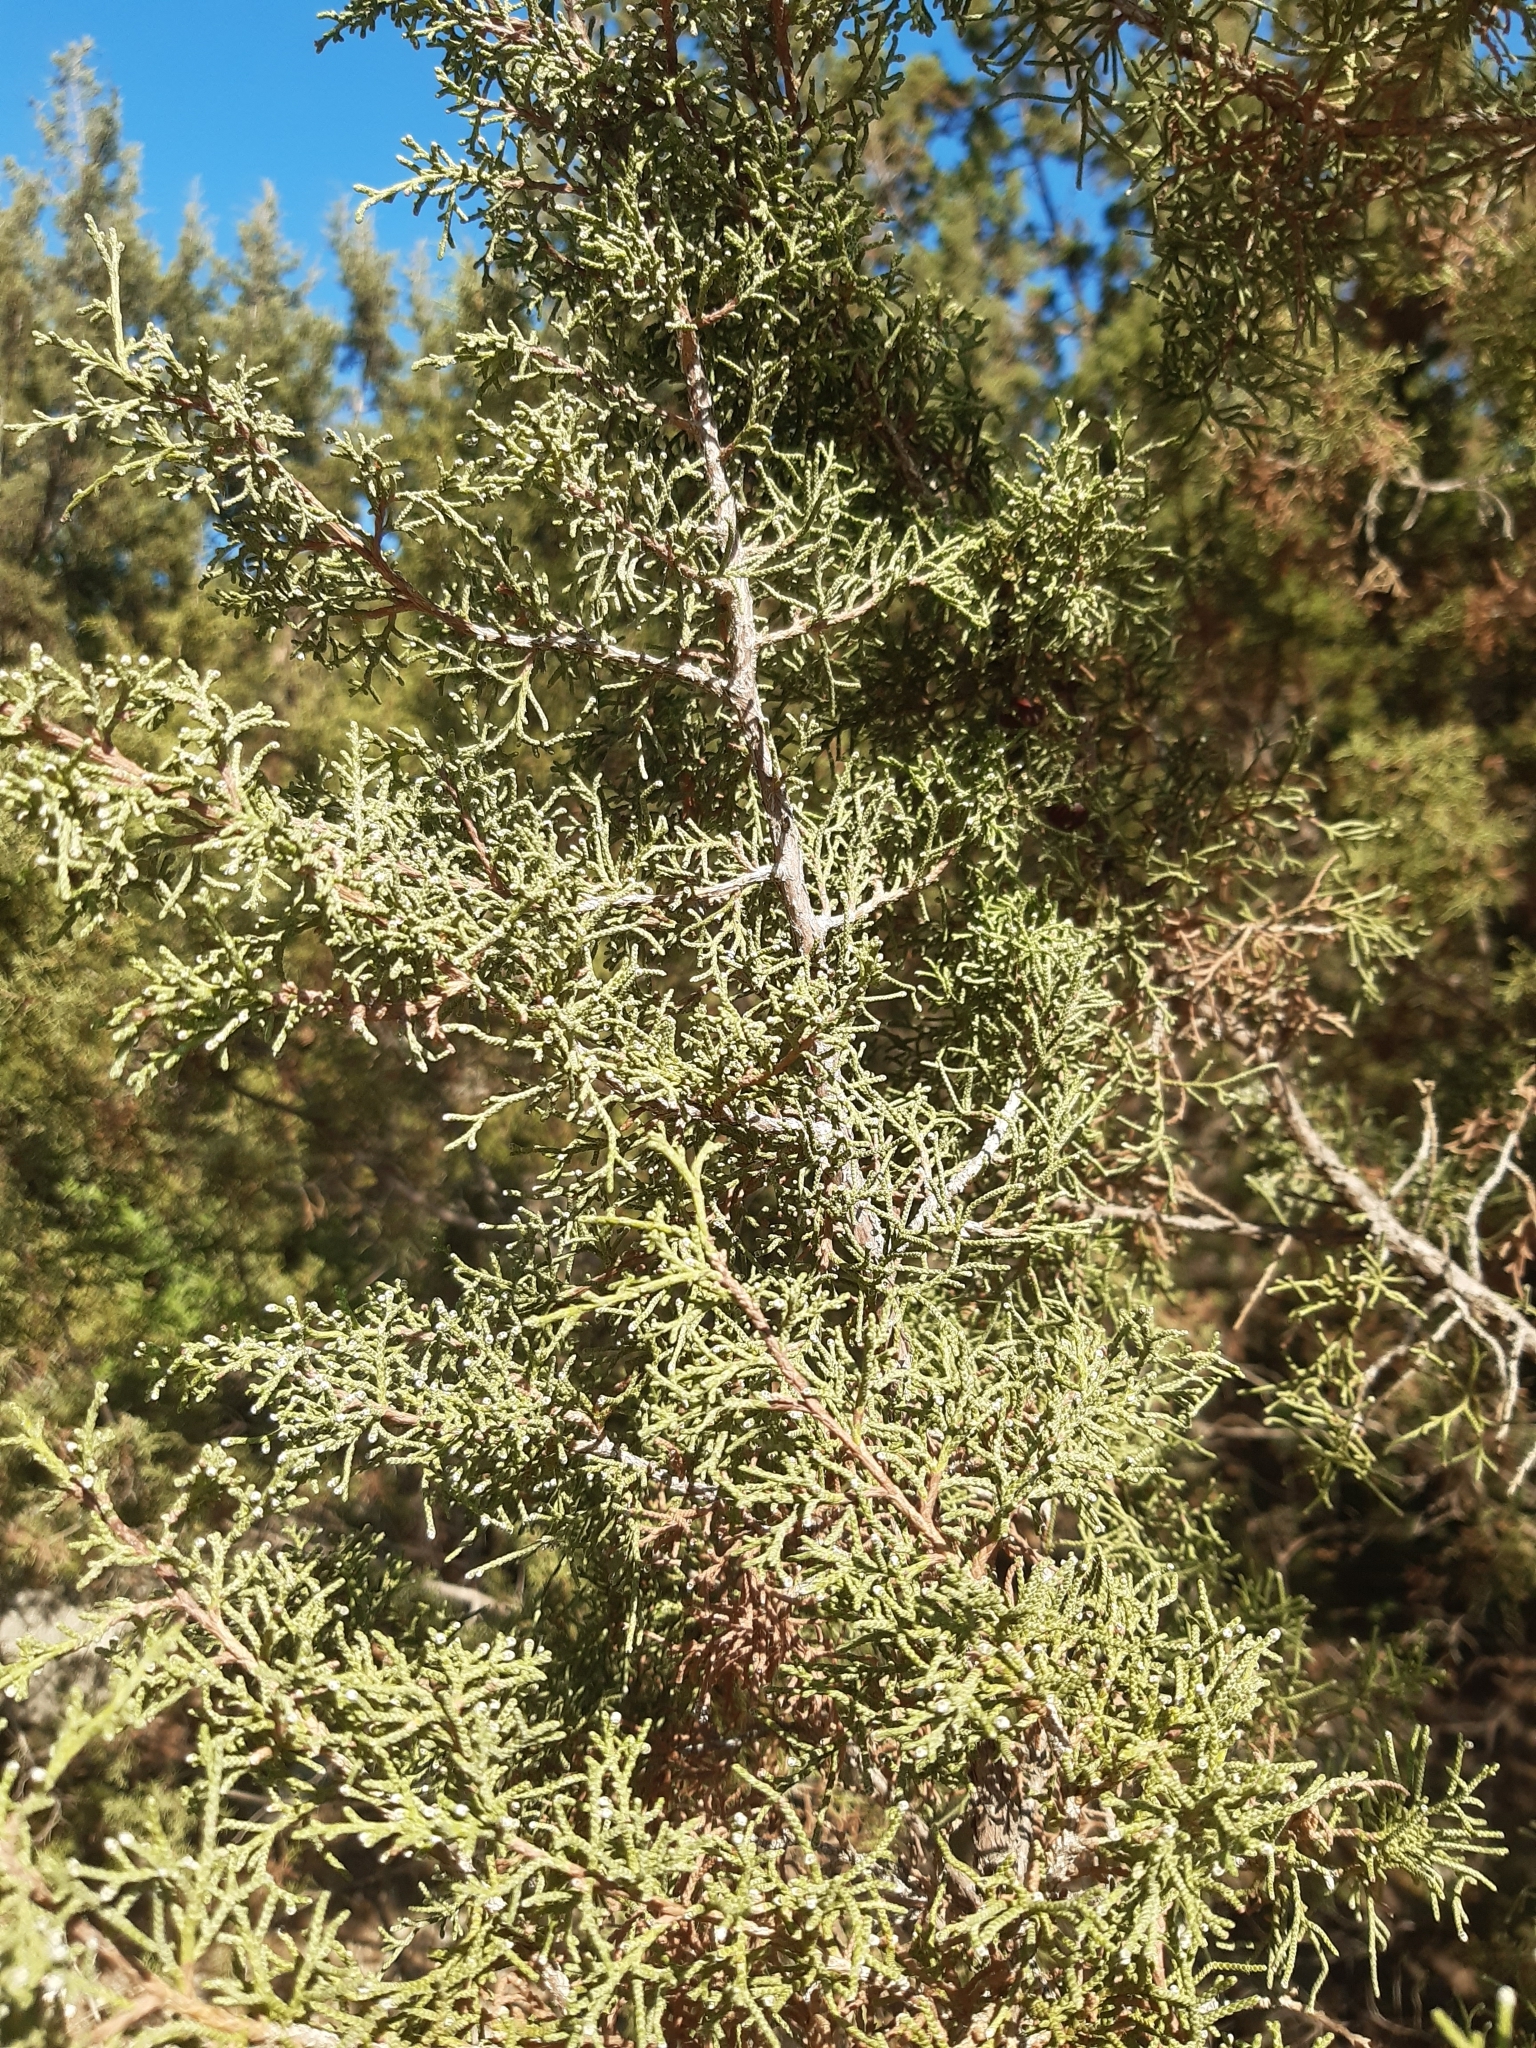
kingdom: Plantae
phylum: Tracheophyta
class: Pinopsida
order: Pinales
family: Cupressaceae
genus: Juniperus
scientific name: Juniperus phoenicea
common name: Phoenician juniper
